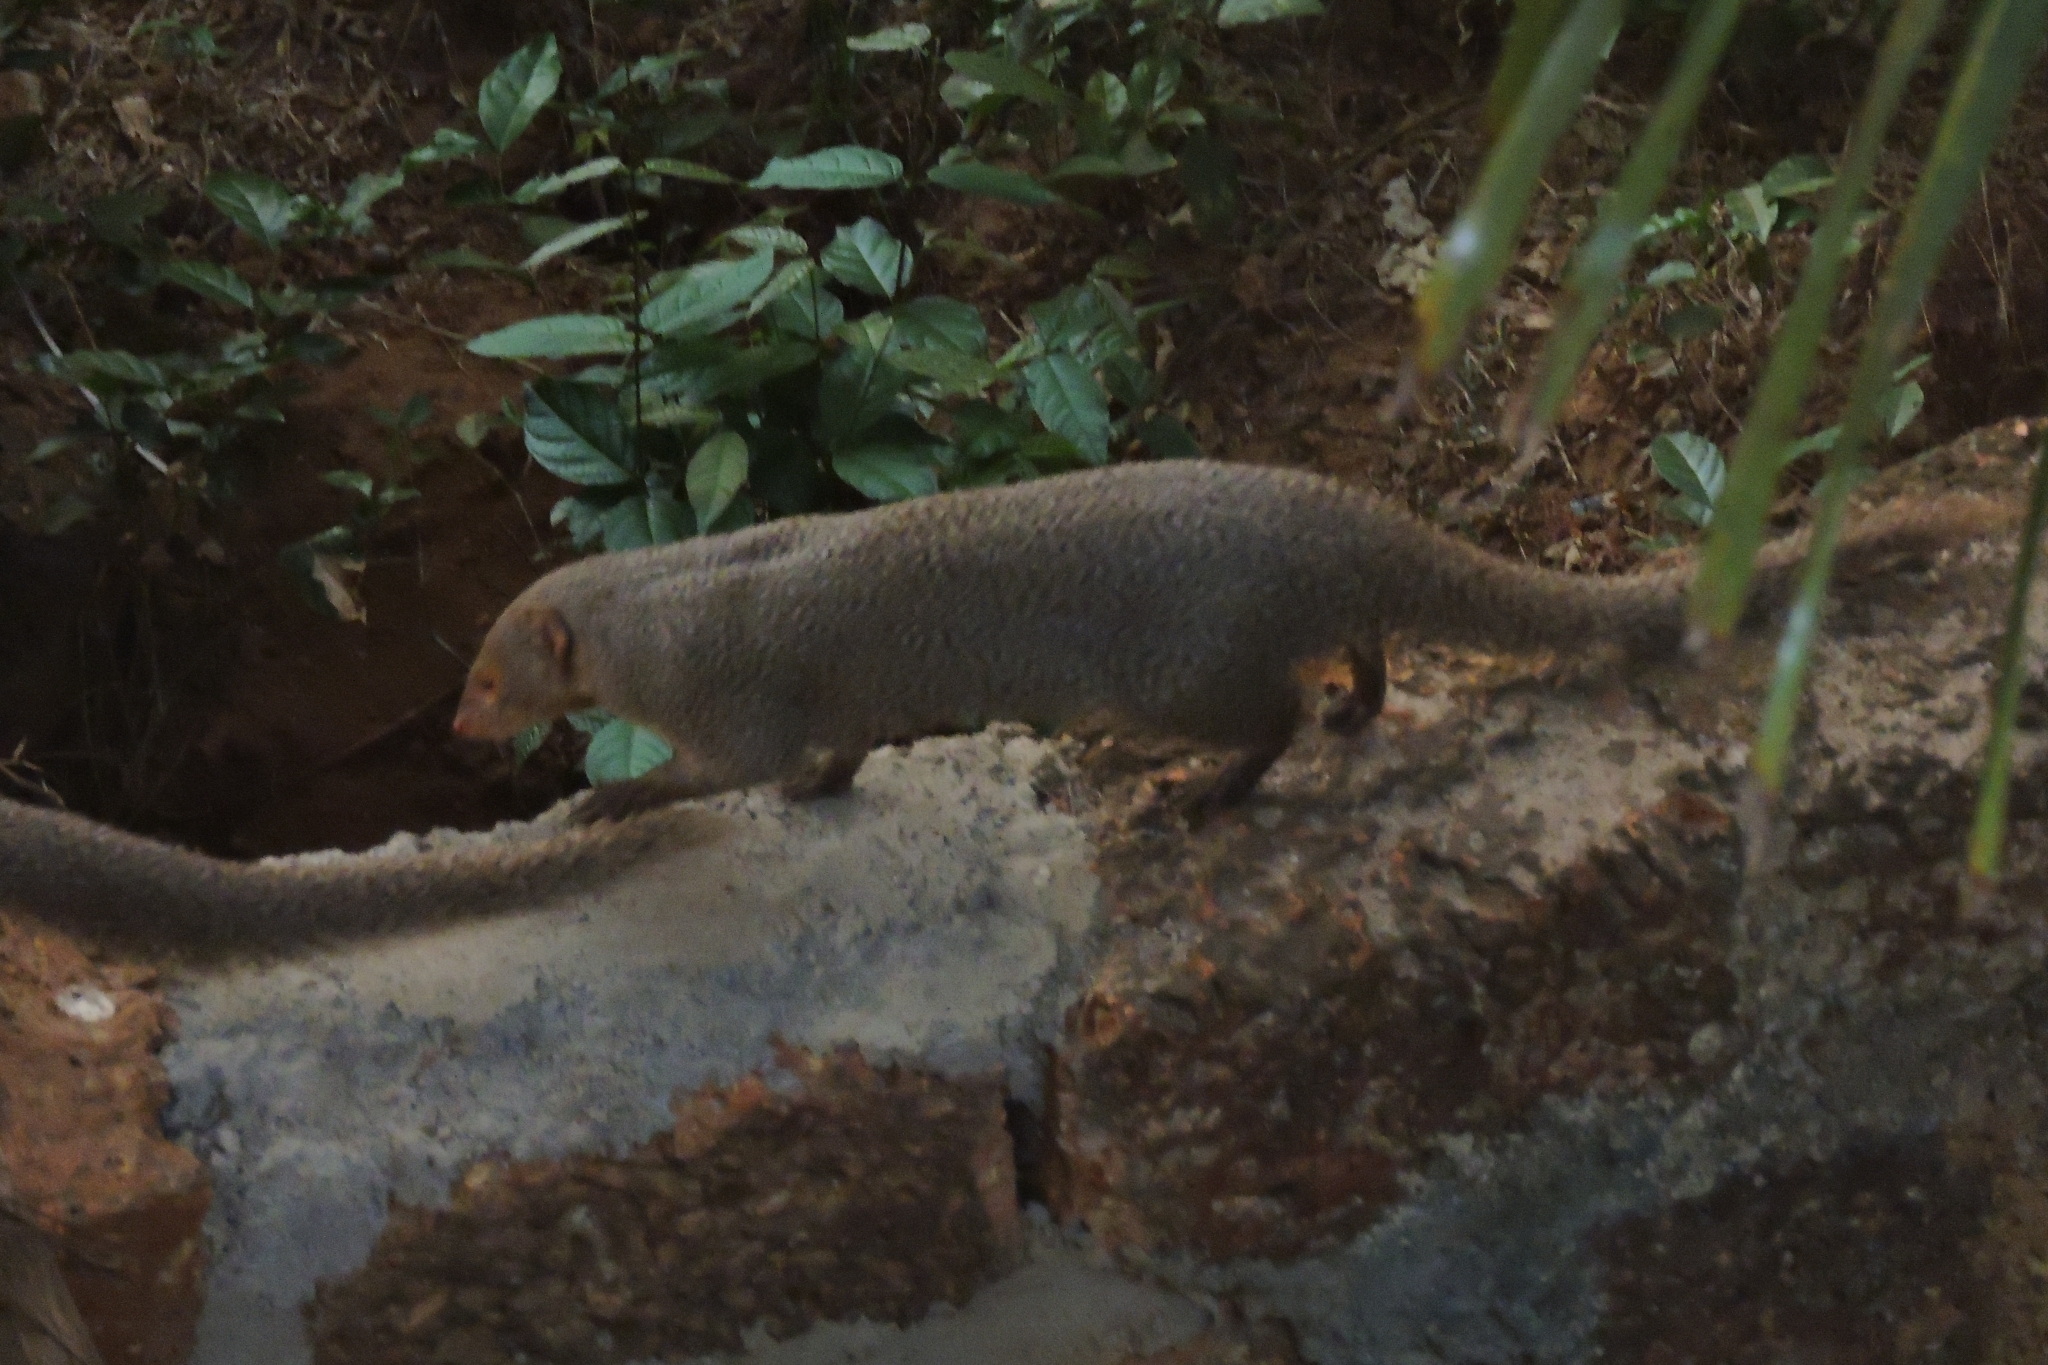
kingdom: Animalia
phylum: Chordata
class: Mammalia
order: Carnivora
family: Herpestidae
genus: Herpestes
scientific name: Herpestes edwardsi
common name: Indian gray mongoose
